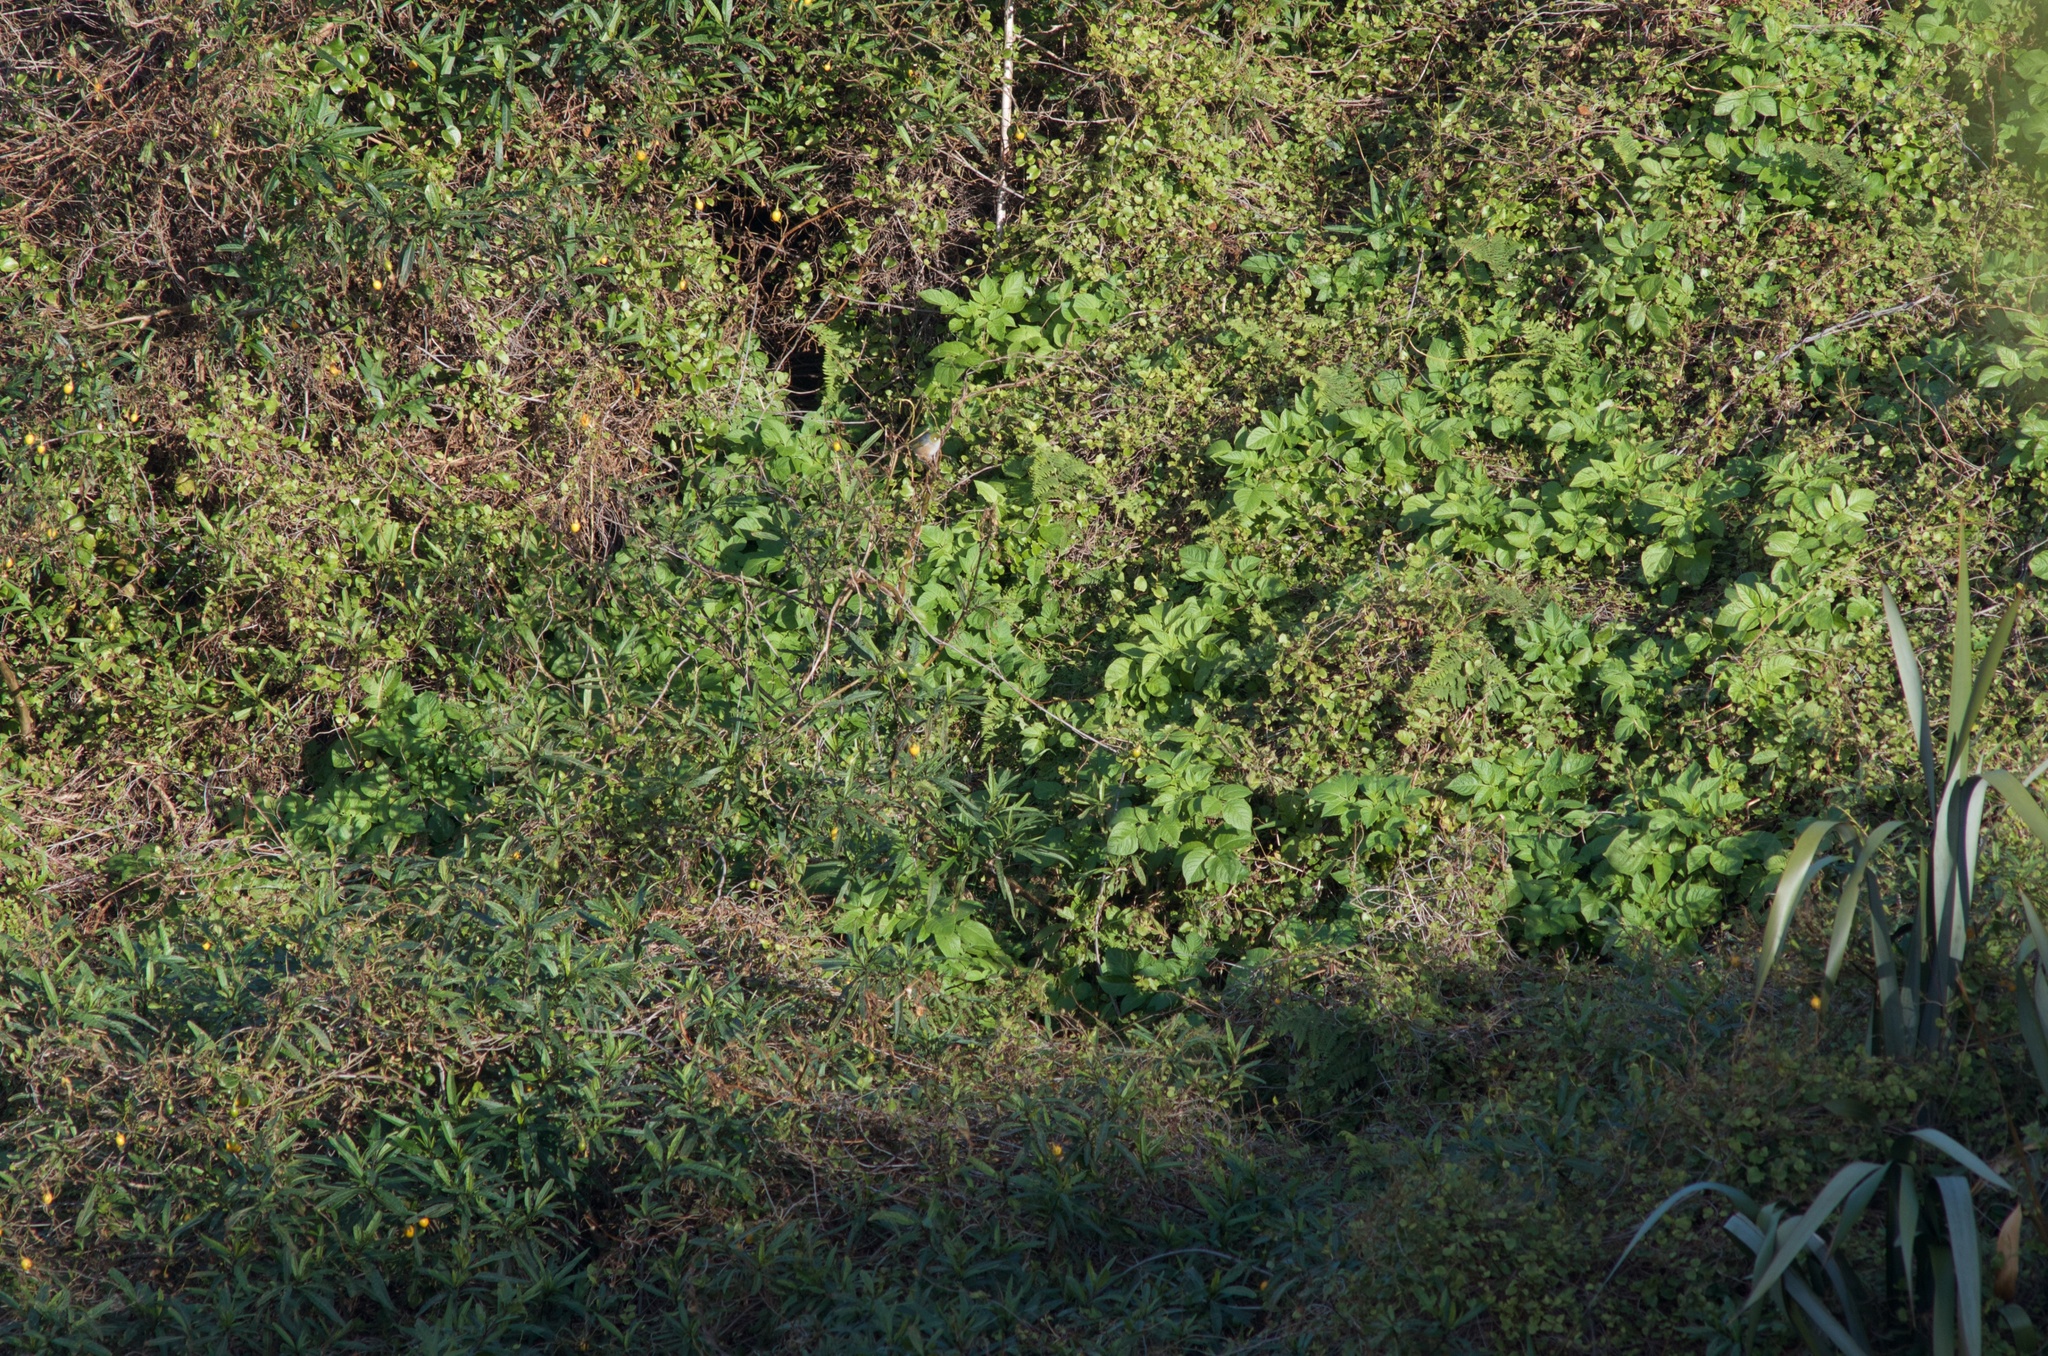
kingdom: Plantae
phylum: Tracheophyta
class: Magnoliopsida
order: Solanales
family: Solanaceae
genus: Solanum
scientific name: Solanum tuberosum
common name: Potato
